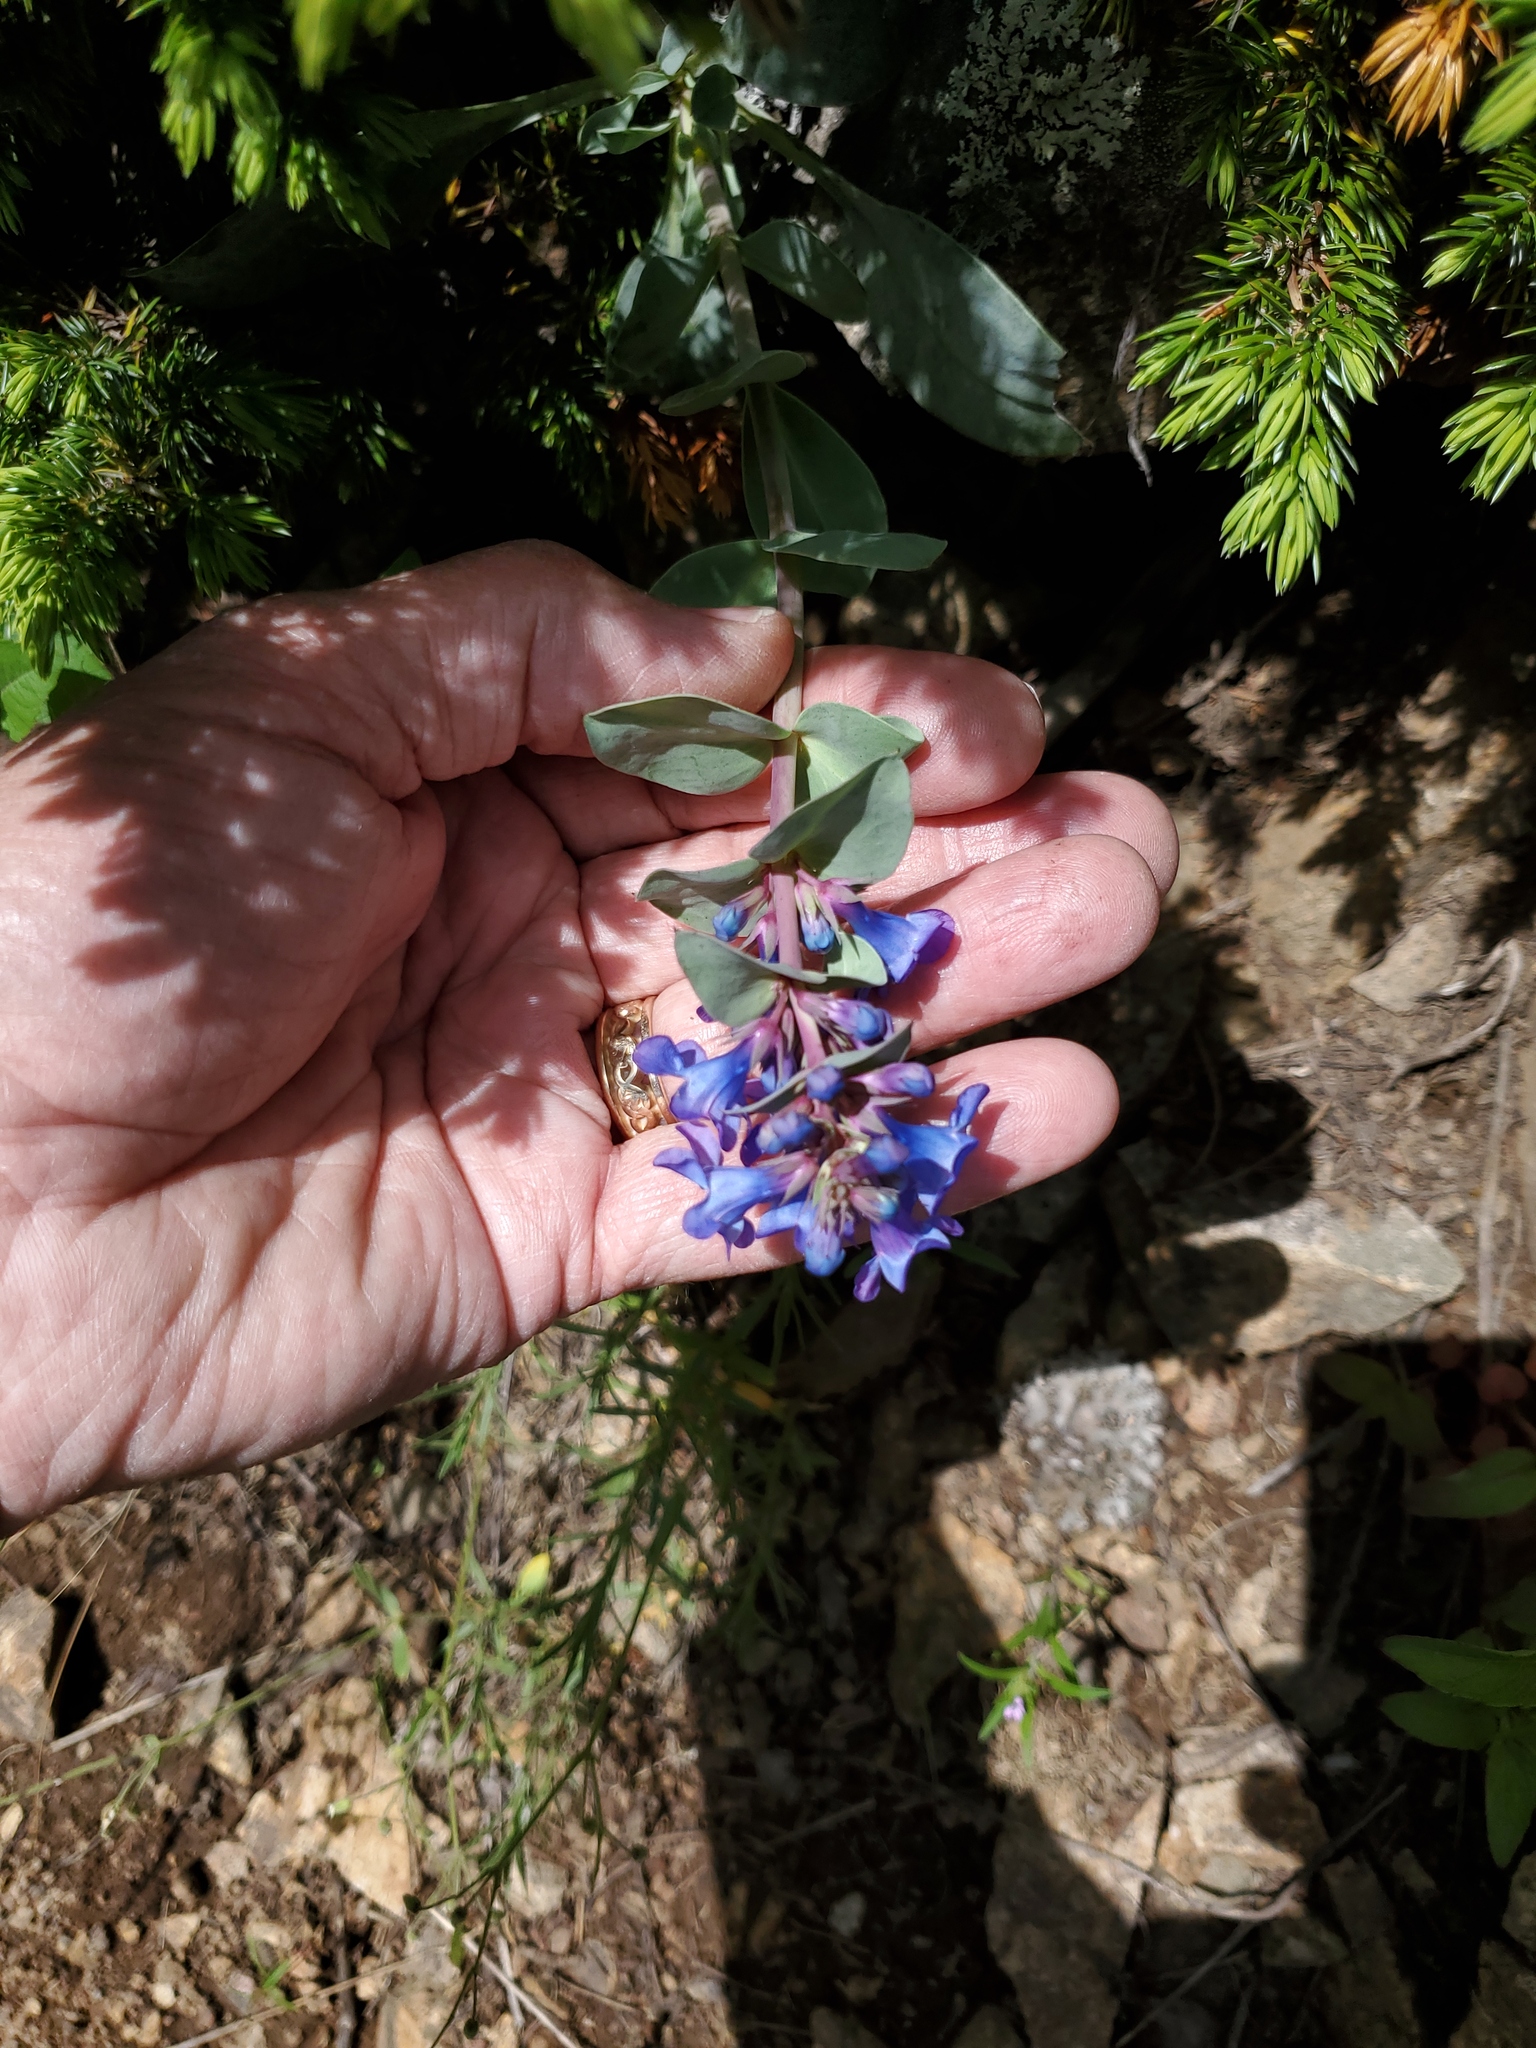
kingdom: Plantae
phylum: Tracheophyta
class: Magnoliopsida
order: Lamiales
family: Plantaginaceae
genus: Penstemon
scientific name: Penstemon nitidus
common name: Shining penstemon
